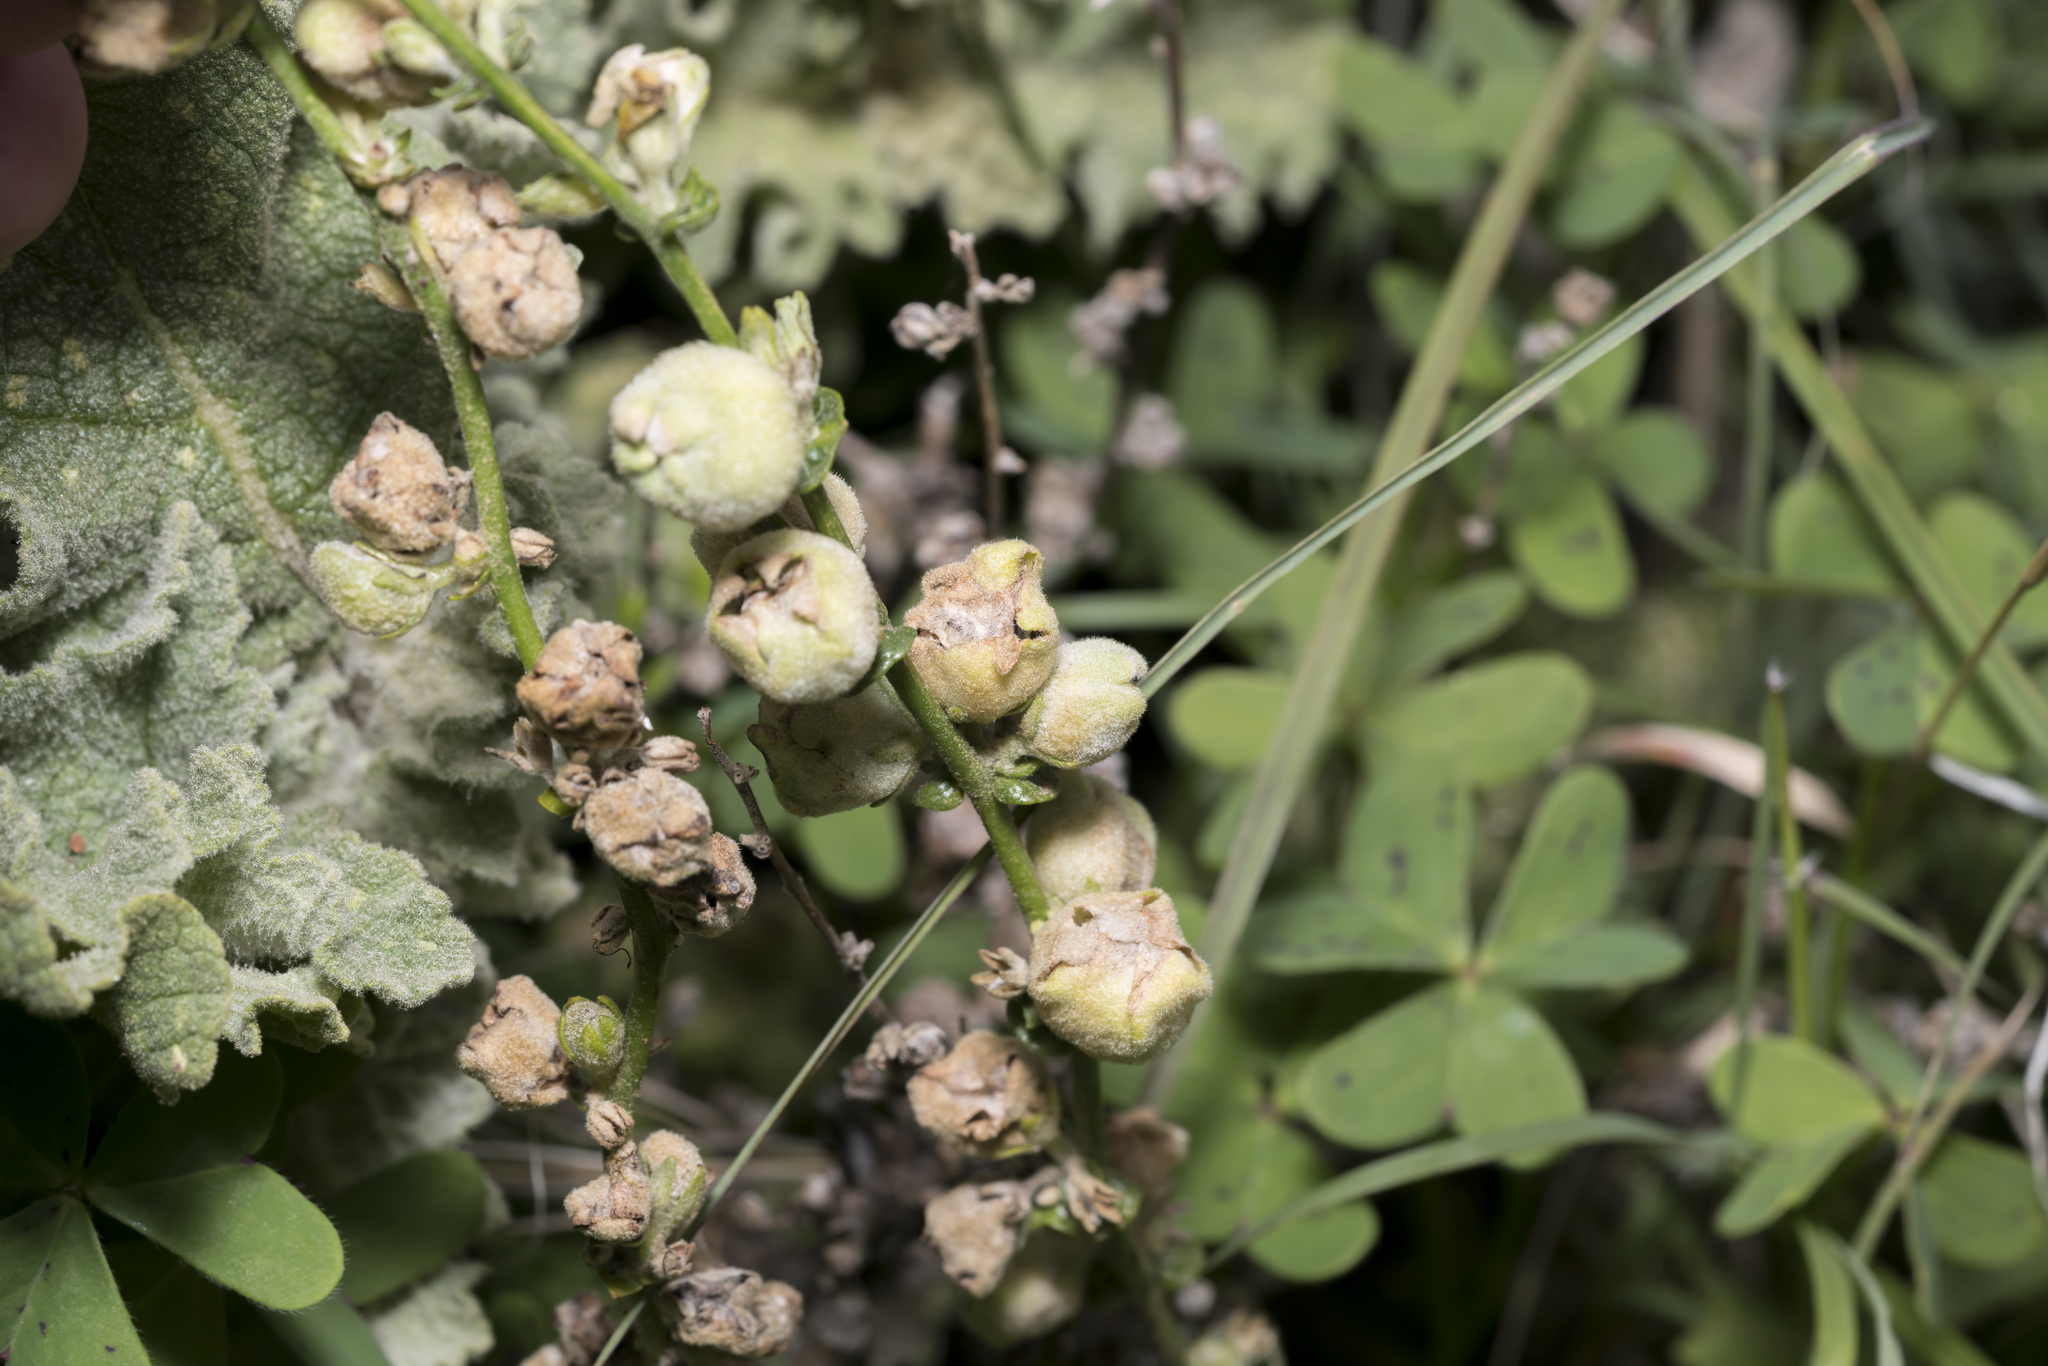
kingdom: Animalia
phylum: Arthropoda
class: Insecta
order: Diptera
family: Cecidomyiidae
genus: Asphondylia
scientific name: Asphondylia verbasci
